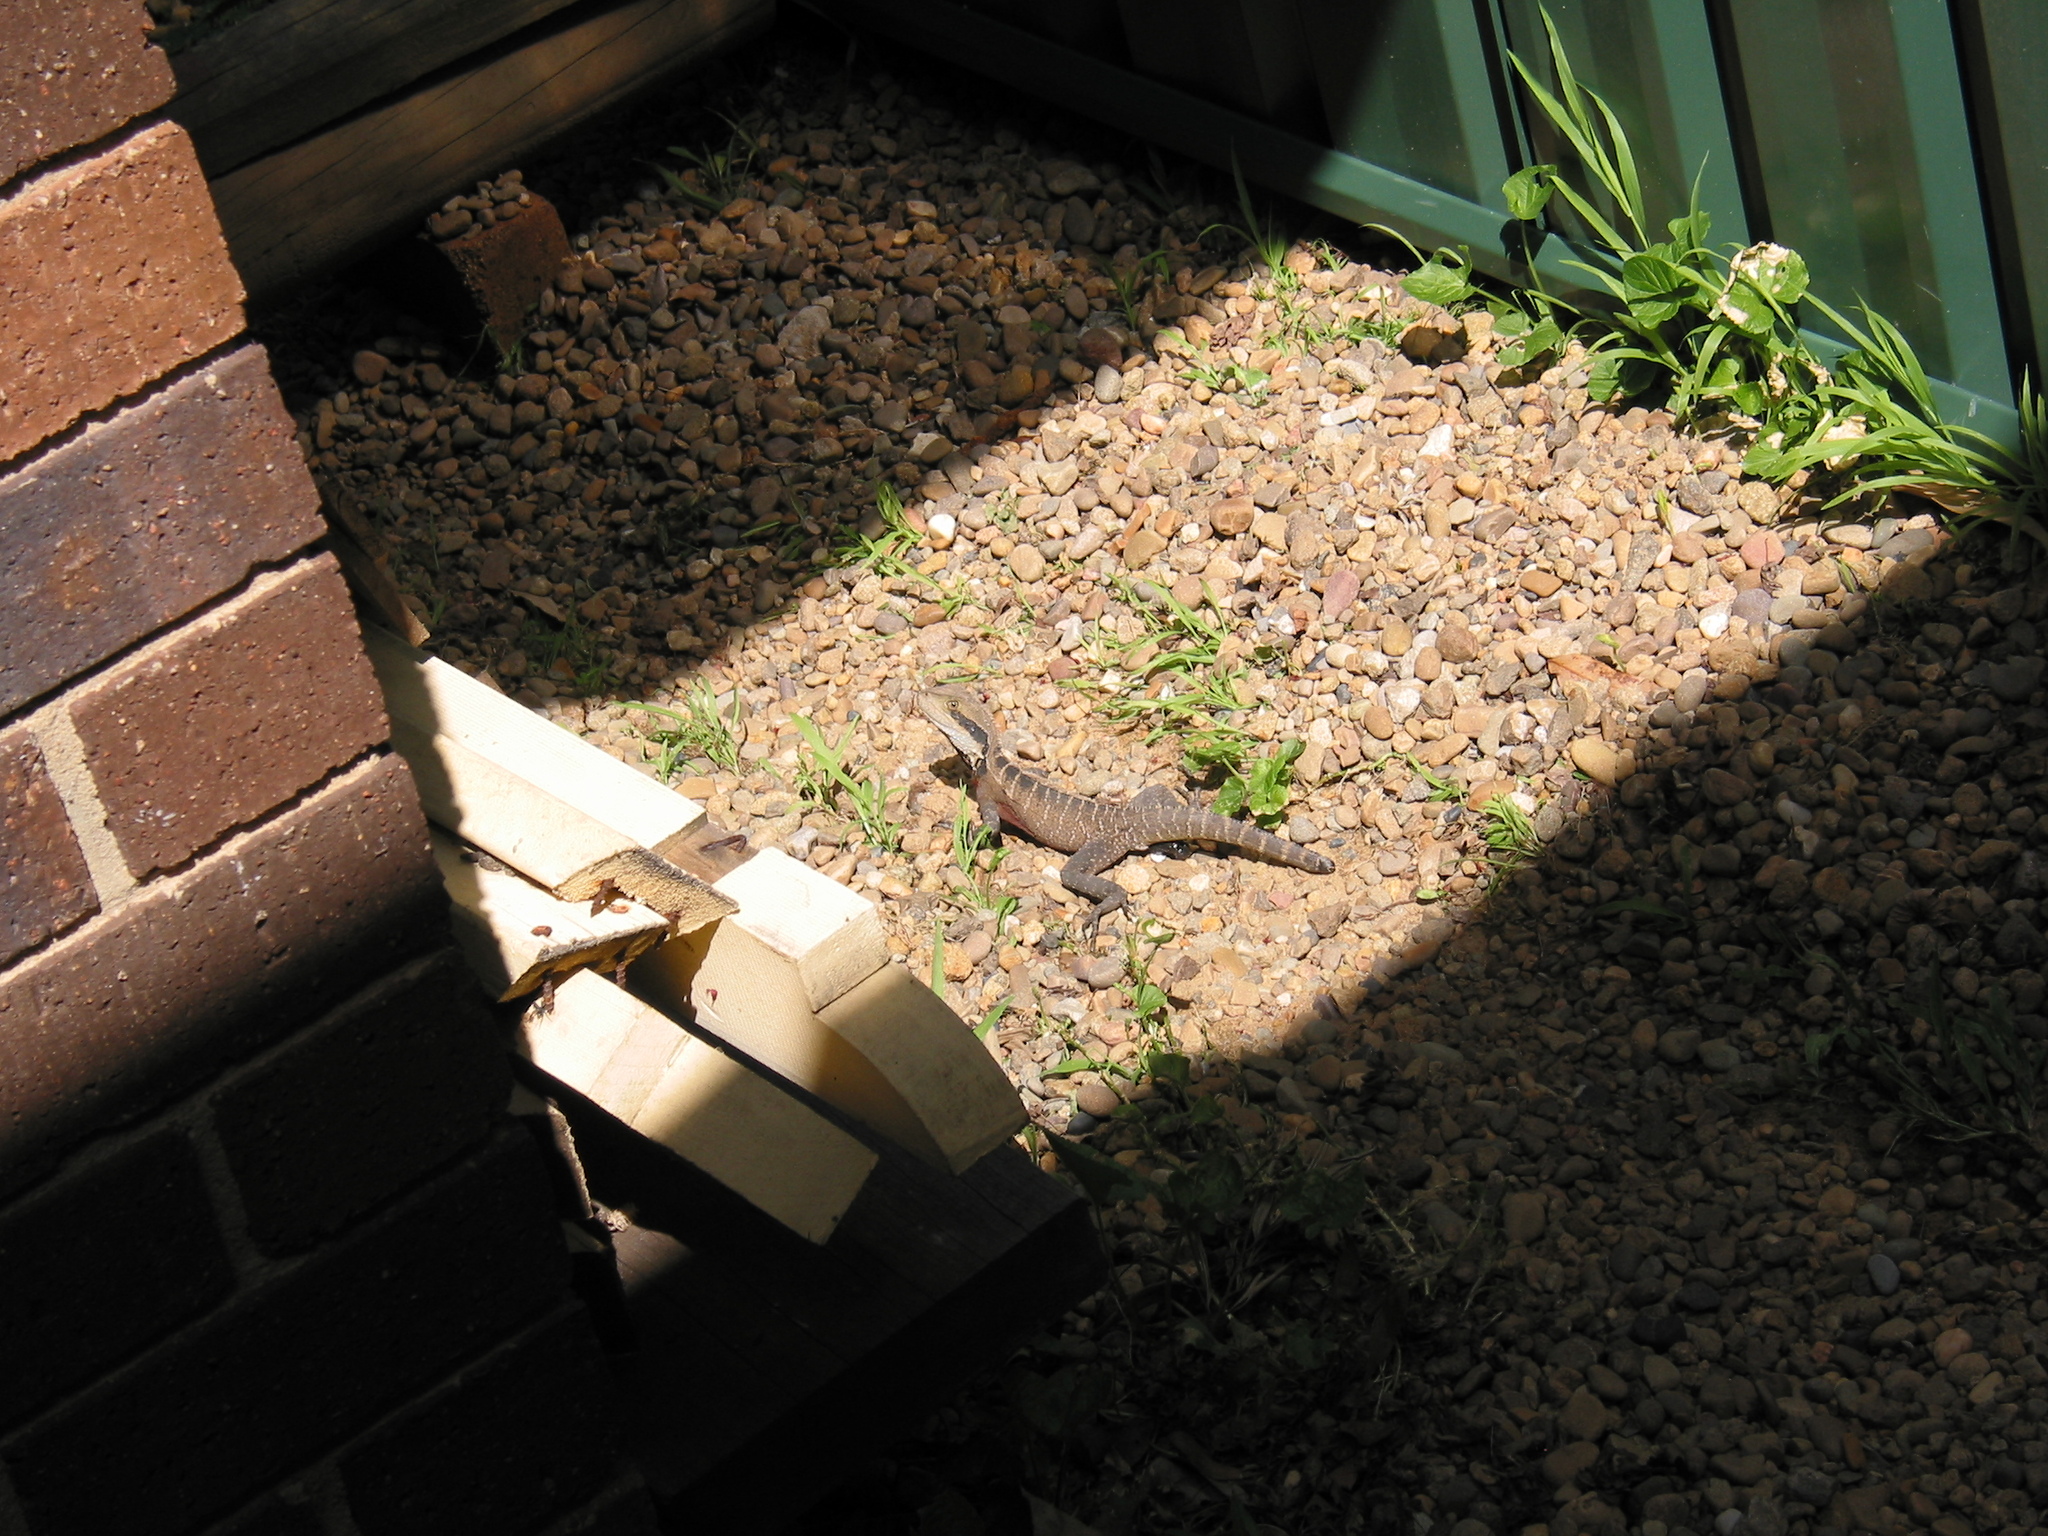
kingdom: Animalia
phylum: Chordata
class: Squamata
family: Agamidae
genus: Intellagama
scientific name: Intellagama lesueurii
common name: Eastern water dragon
